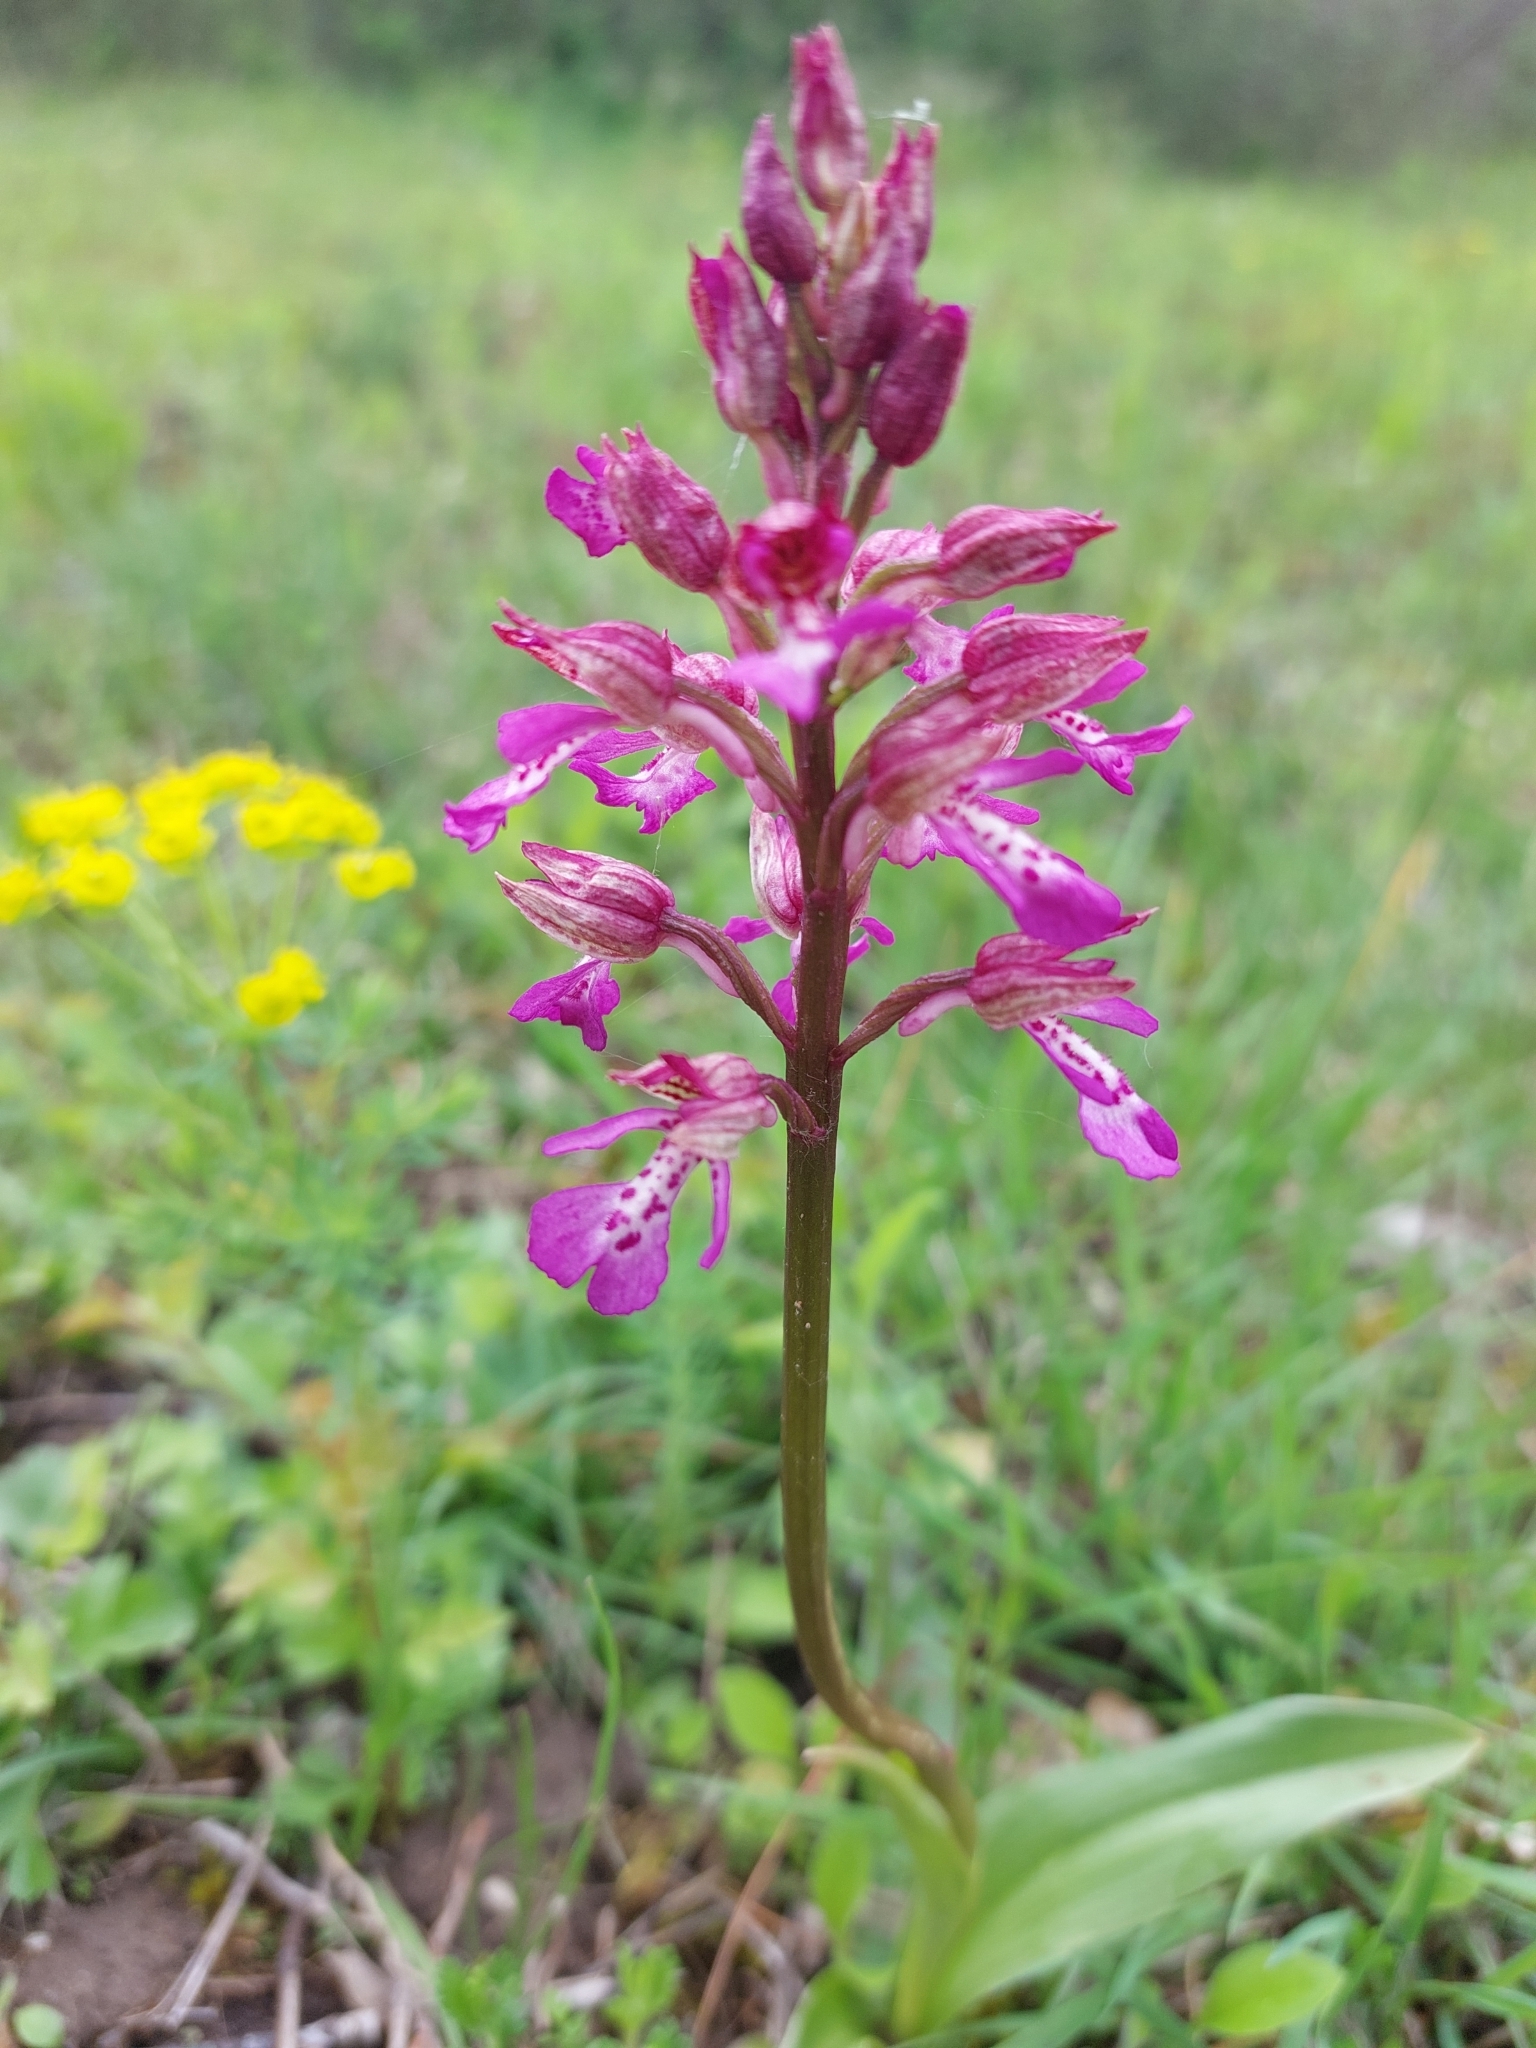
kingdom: Plantae
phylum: Tracheophyta
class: Liliopsida
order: Asparagales
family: Orchidaceae
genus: Orchis
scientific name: Orchis hybrida
